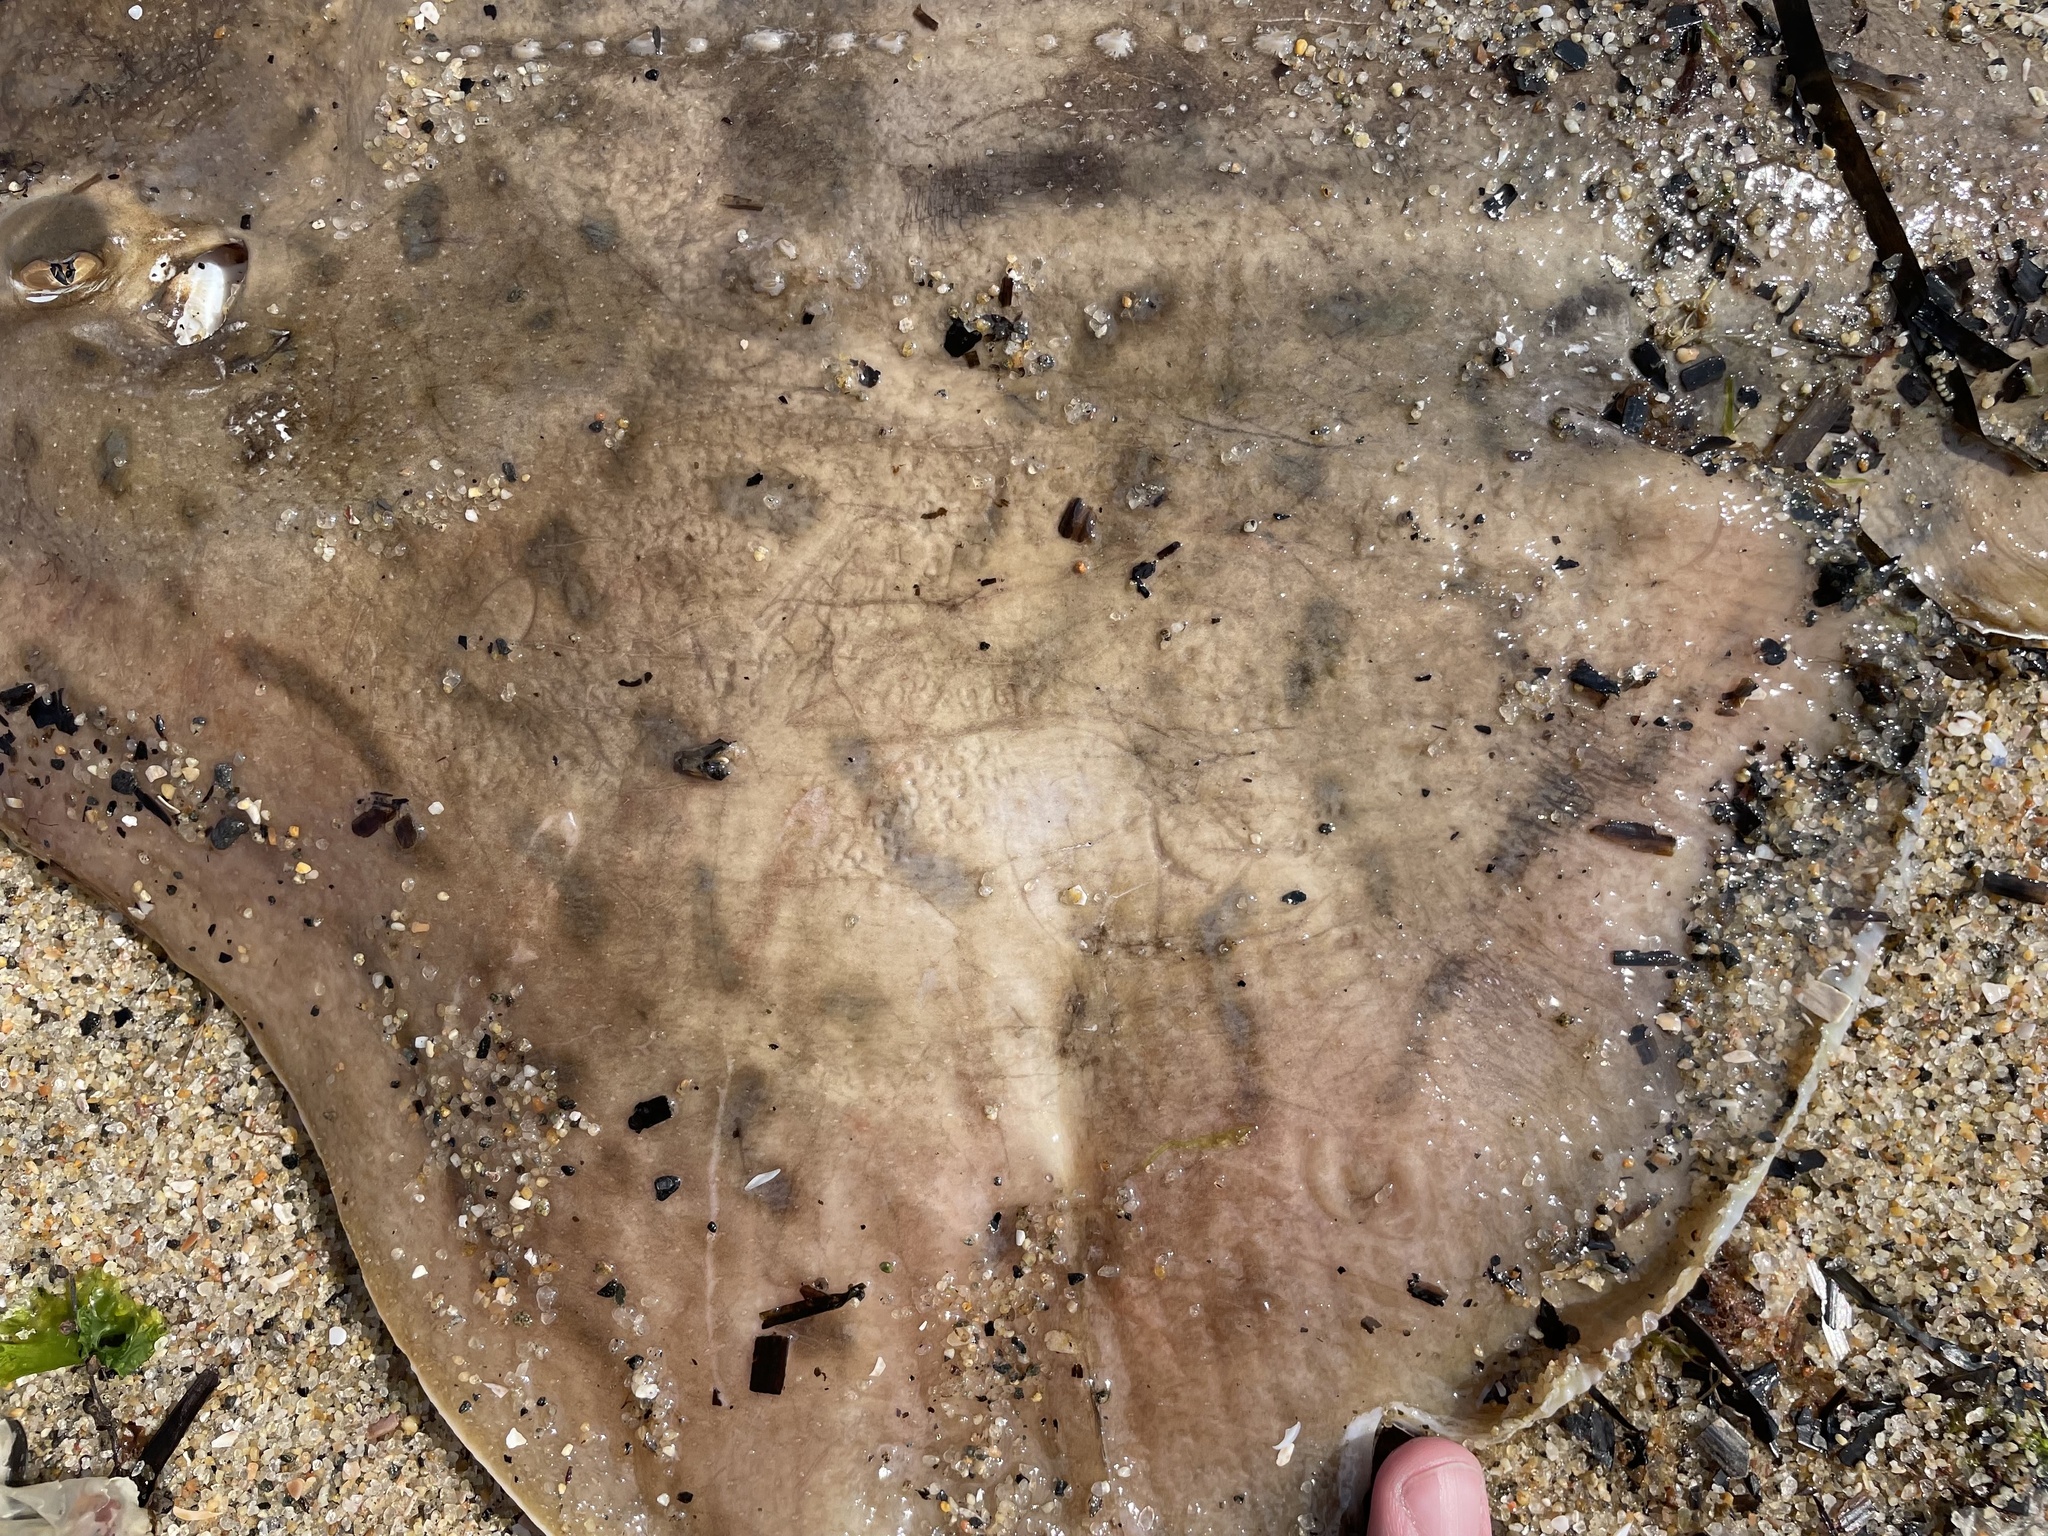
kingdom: Animalia
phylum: Chordata
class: Elasmobranchii
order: Rajiformes
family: Rajidae
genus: Raja
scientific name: Raja eglanteria
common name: Clearnose skate
